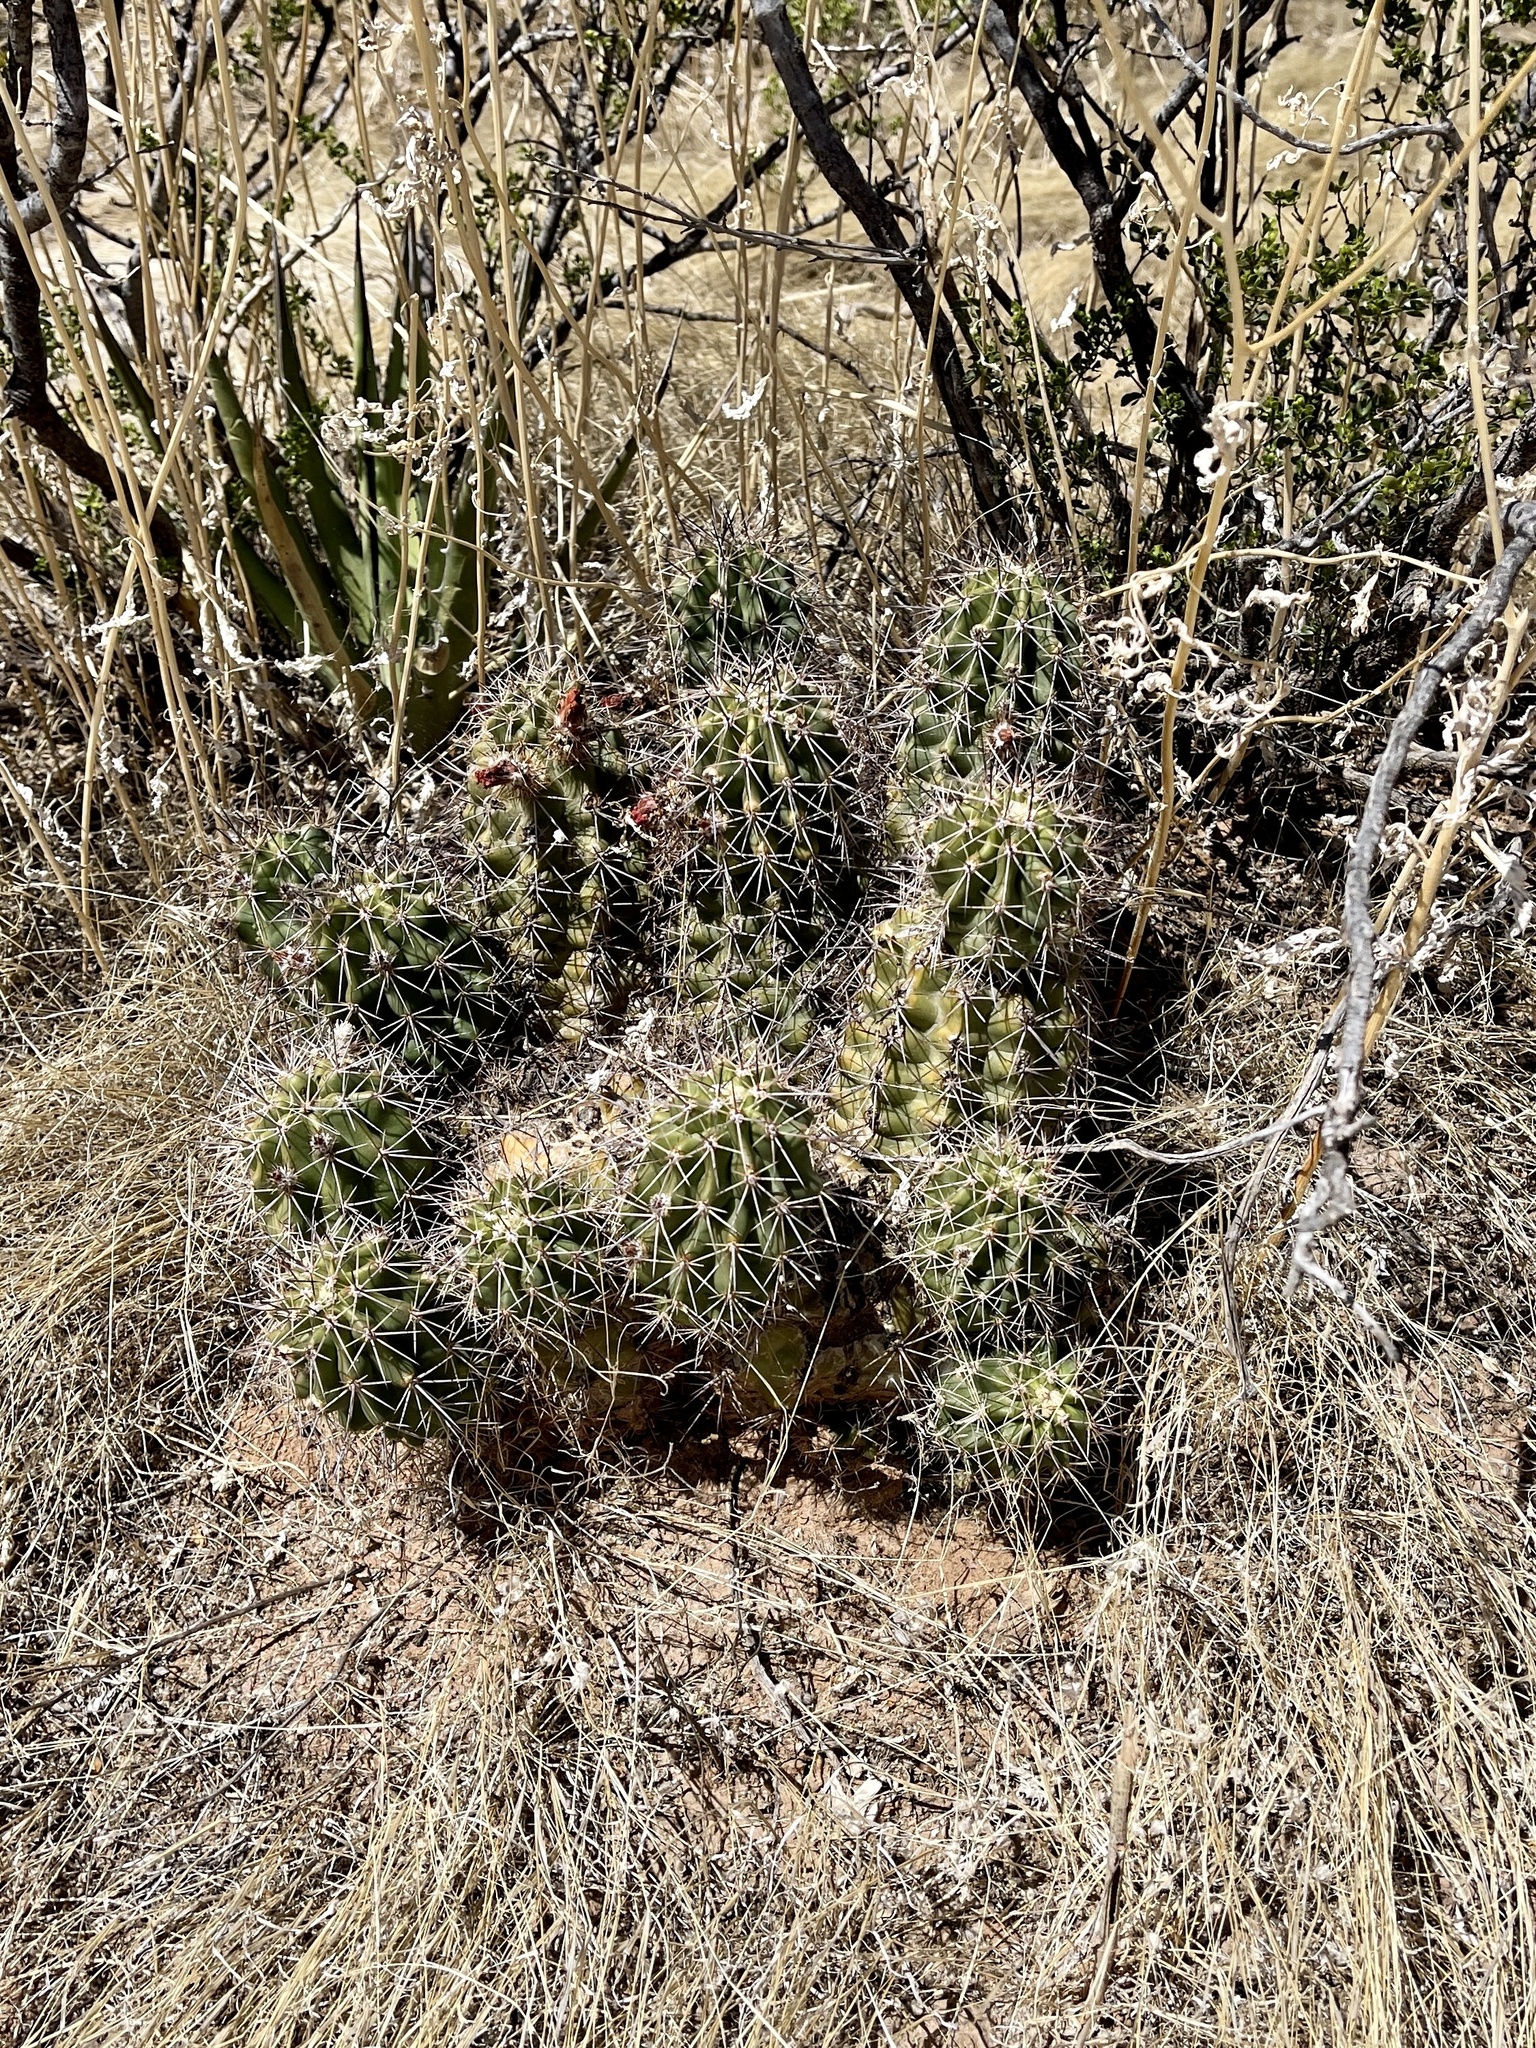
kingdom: Plantae
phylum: Tracheophyta
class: Magnoliopsida
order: Caryophyllales
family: Cactaceae
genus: Echinocereus
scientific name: Echinocereus coccineus
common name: Scarlet hedgehog cactus
